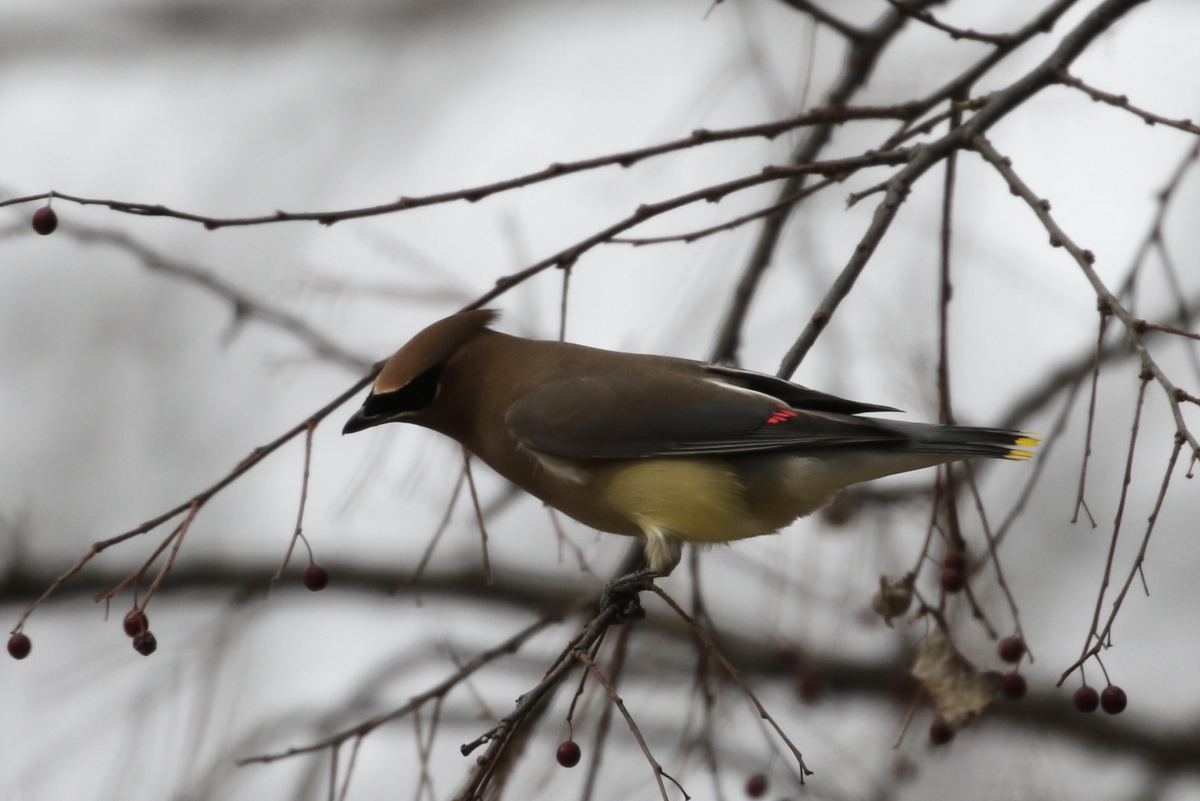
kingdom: Animalia
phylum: Chordata
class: Aves
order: Passeriformes
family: Bombycillidae
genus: Bombycilla
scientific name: Bombycilla cedrorum
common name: Cedar waxwing
